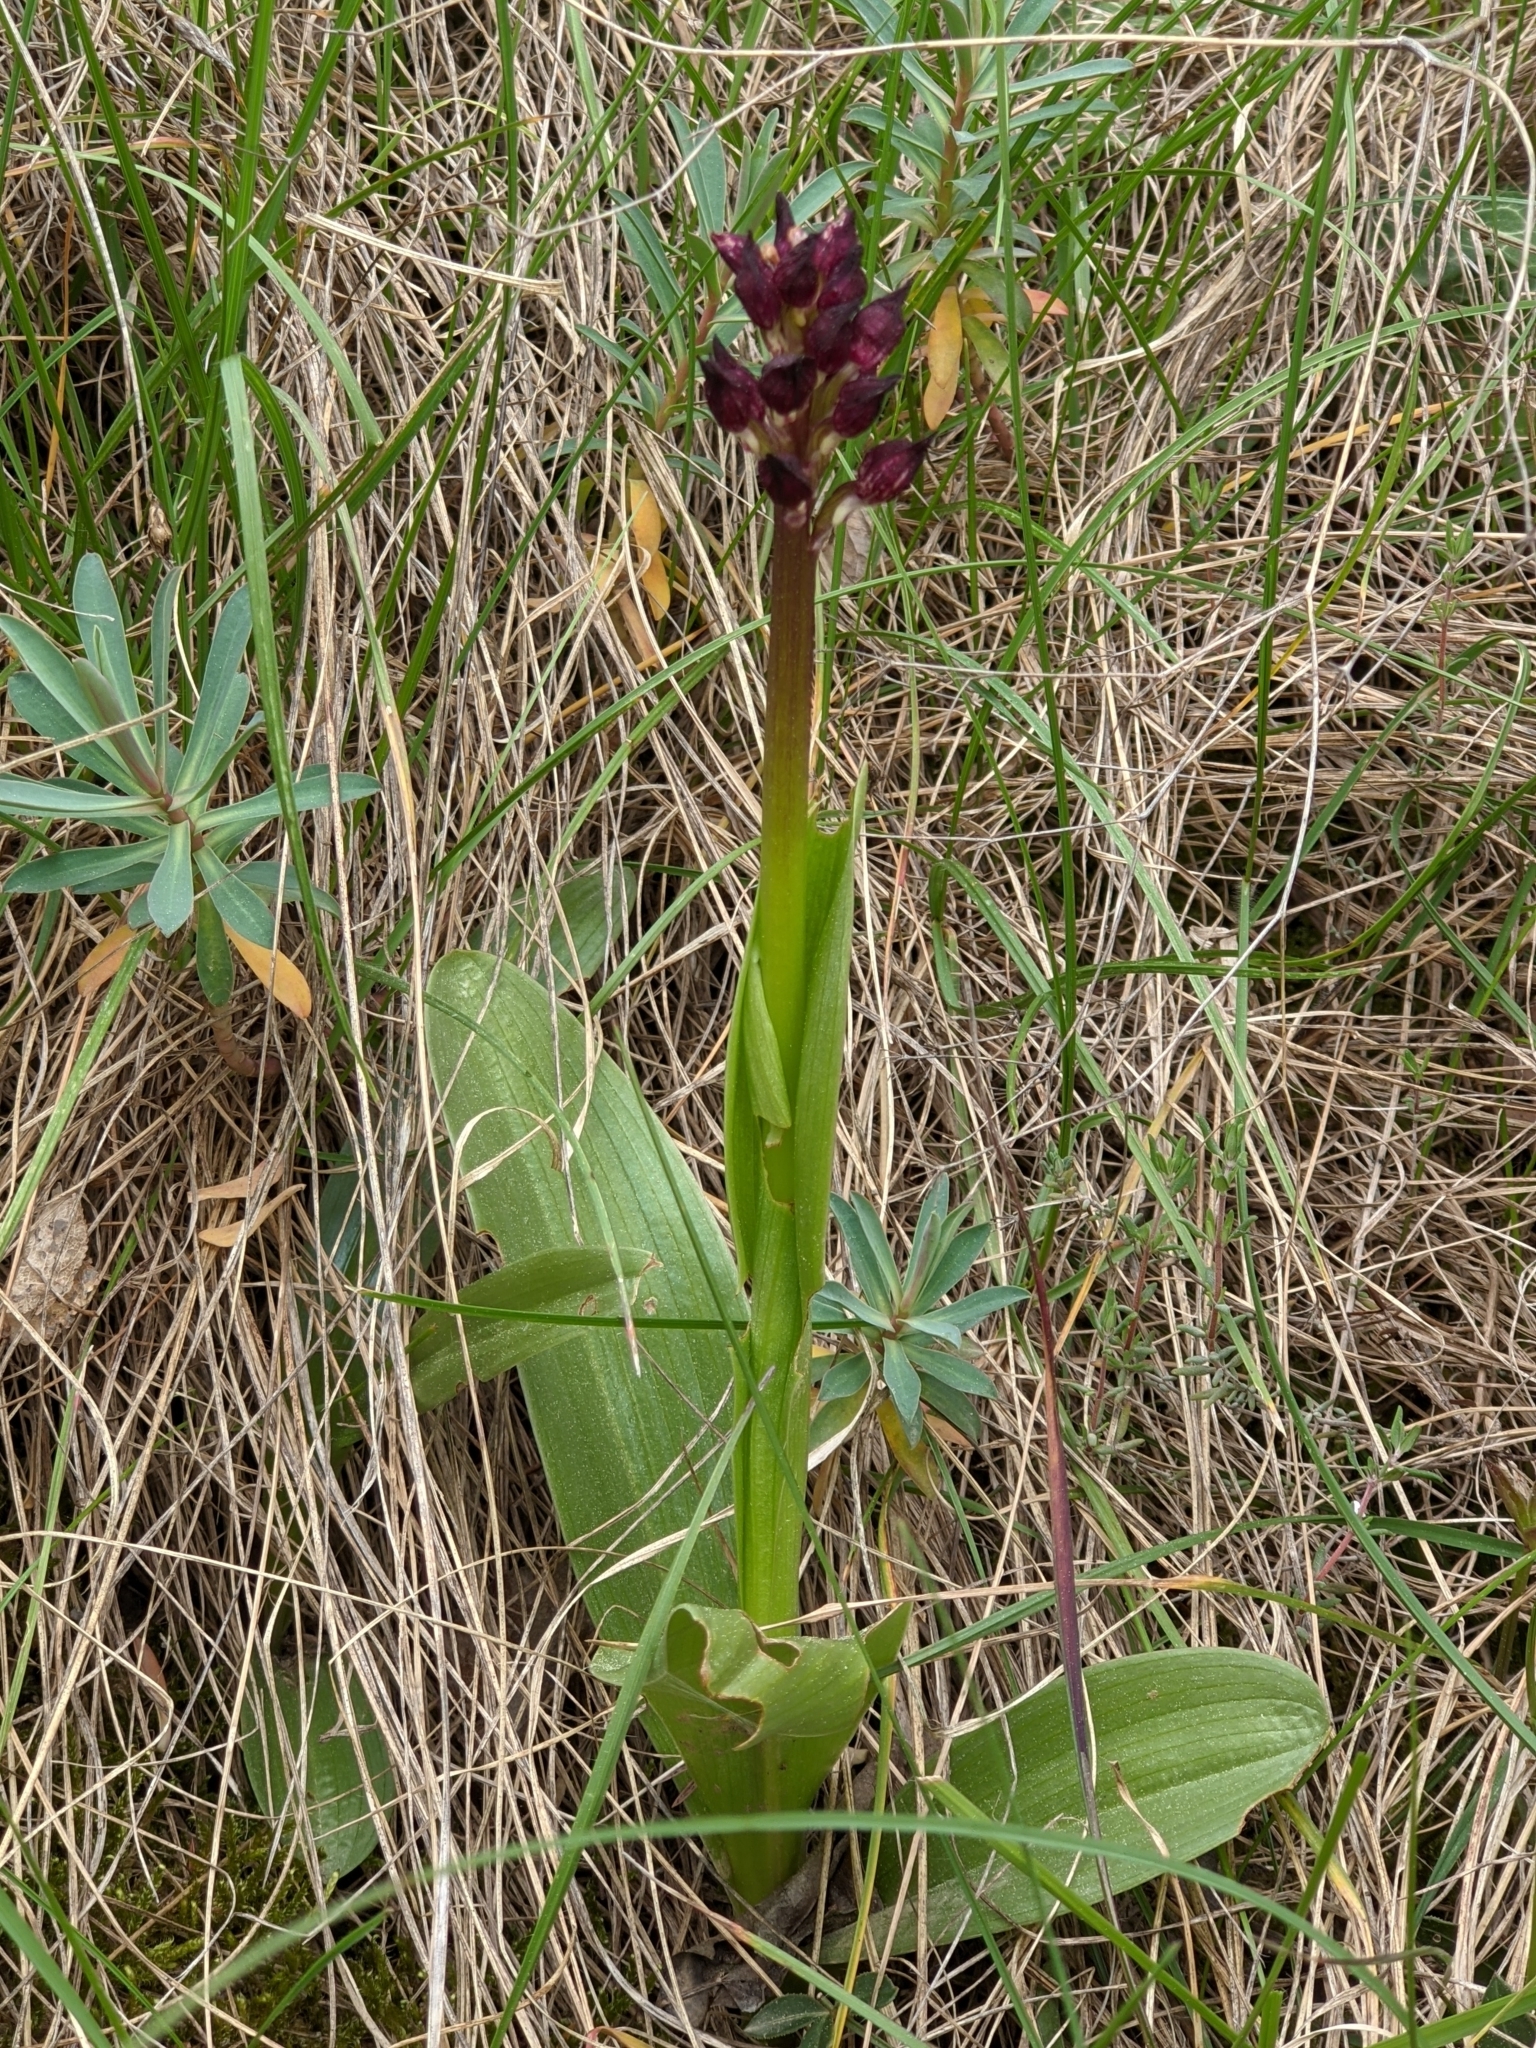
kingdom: Plantae
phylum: Tracheophyta
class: Liliopsida
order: Asparagales
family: Orchidaceae
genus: Orchis
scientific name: Orchis purpurea
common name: Lady orchid
